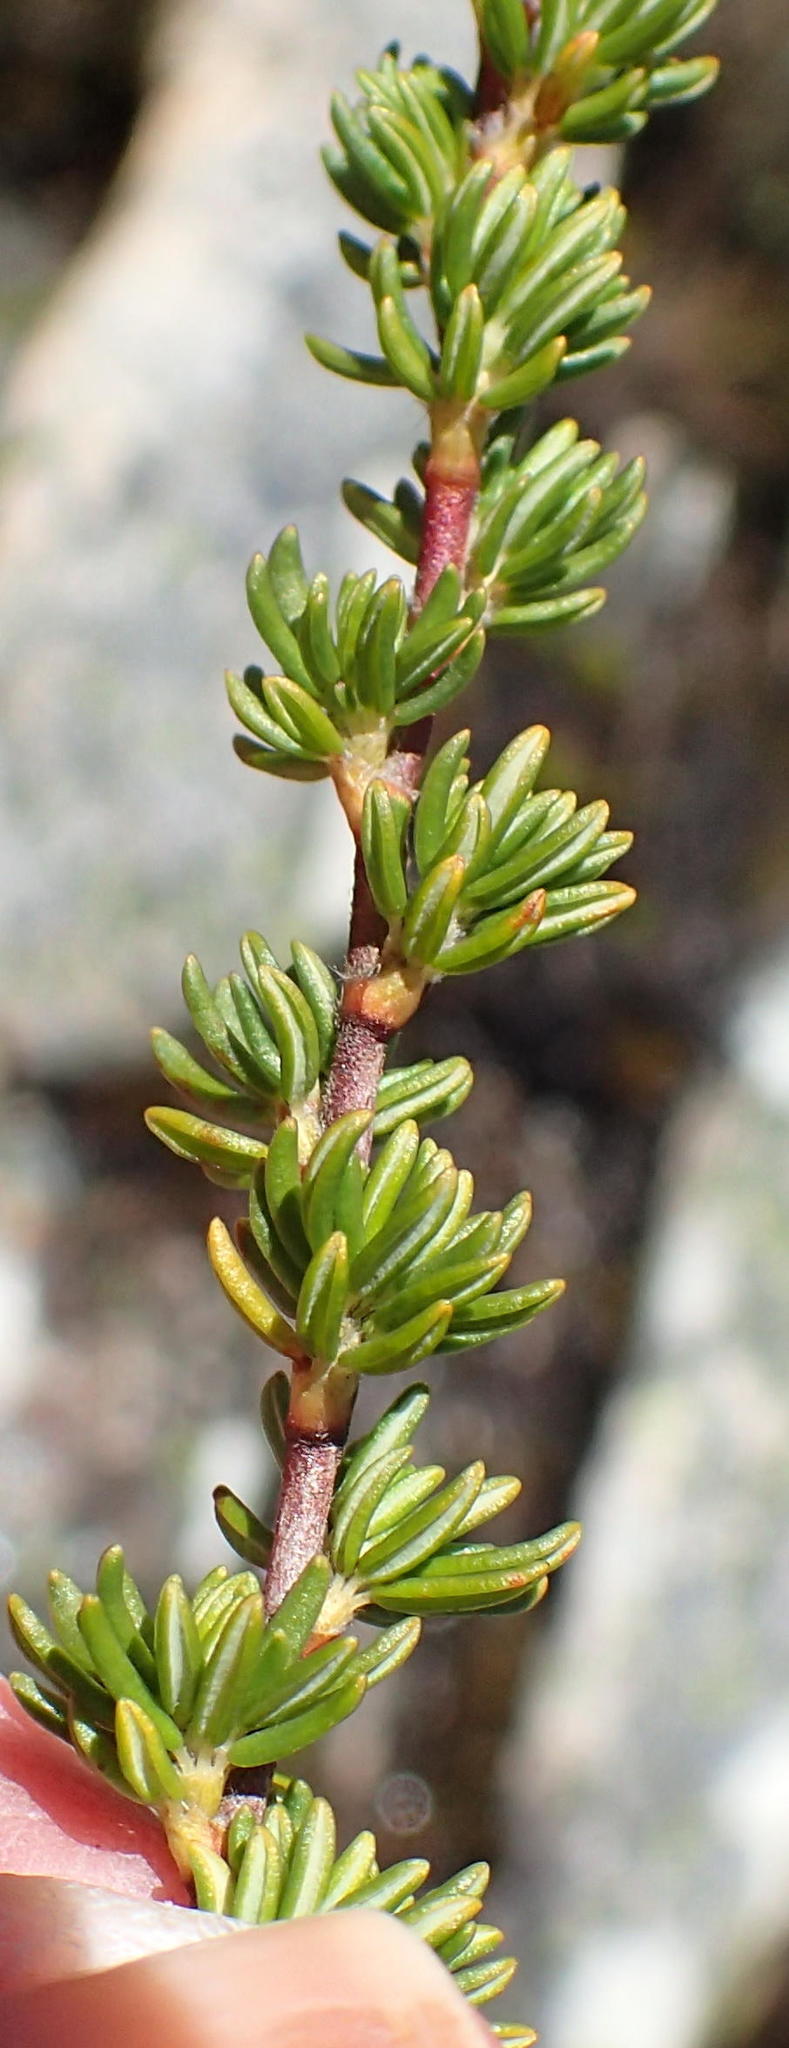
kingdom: Plantae
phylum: Tracheophyta
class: Magnoliopsida
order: Rosales
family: Rosaceae
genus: Cliffortia
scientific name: Cliffortia montana
